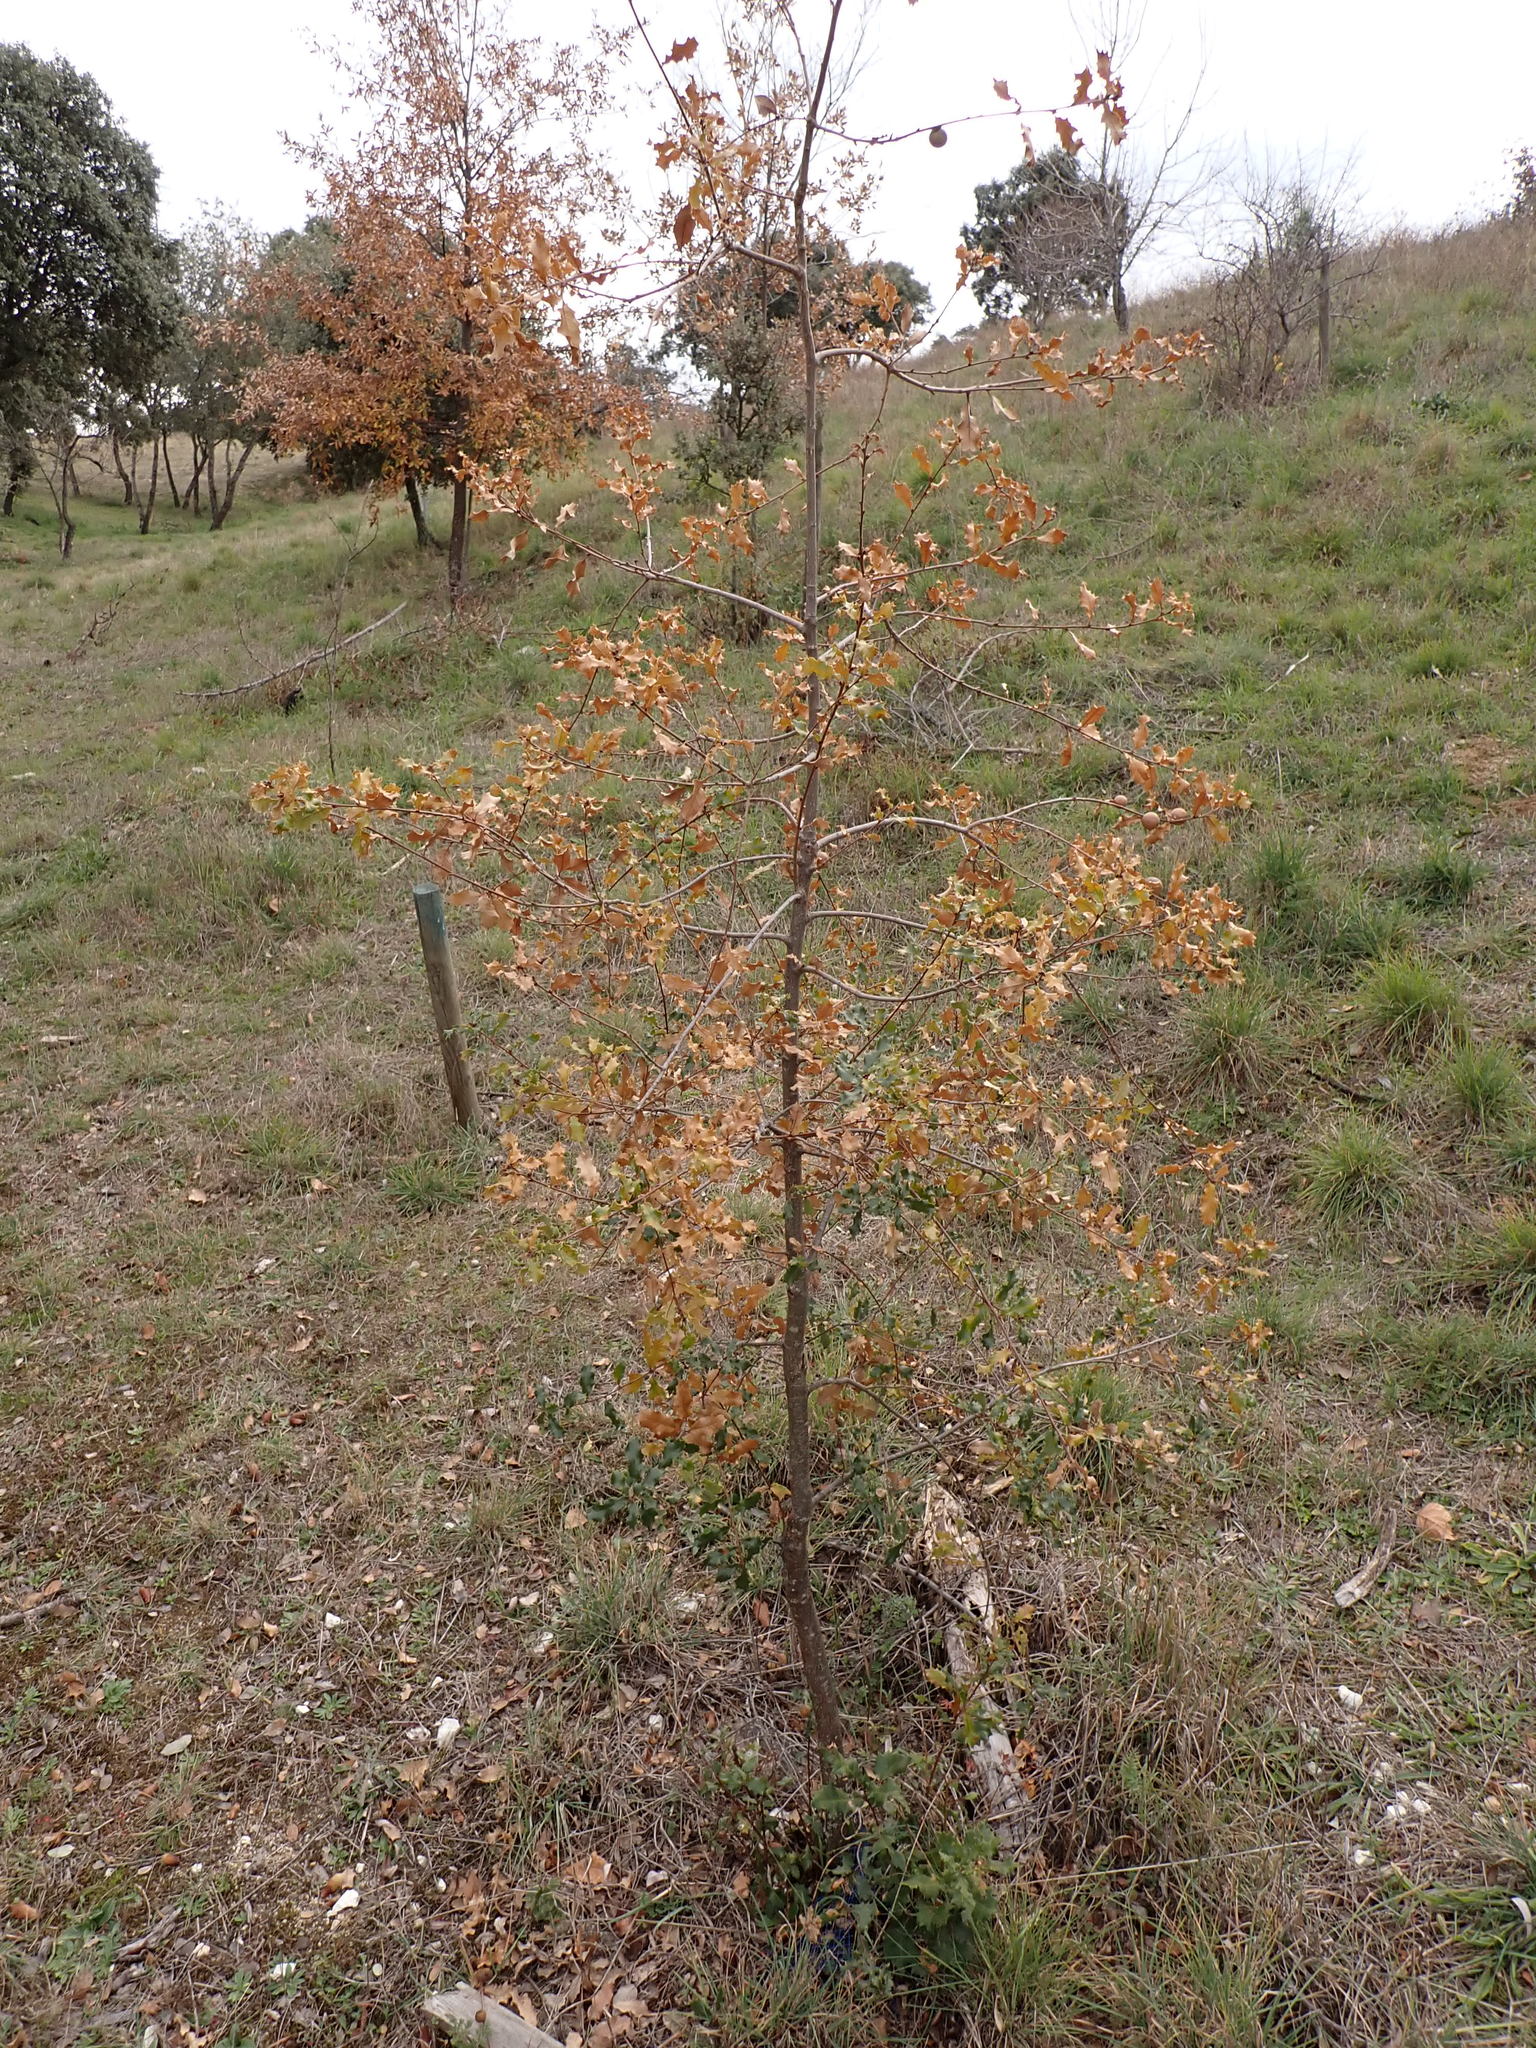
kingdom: Plantae
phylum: Tracheophyta
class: Magnoliopsida
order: Fagales
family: Fagaceae
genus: Quercus
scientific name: Quercus faginea
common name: Gall oak tree
